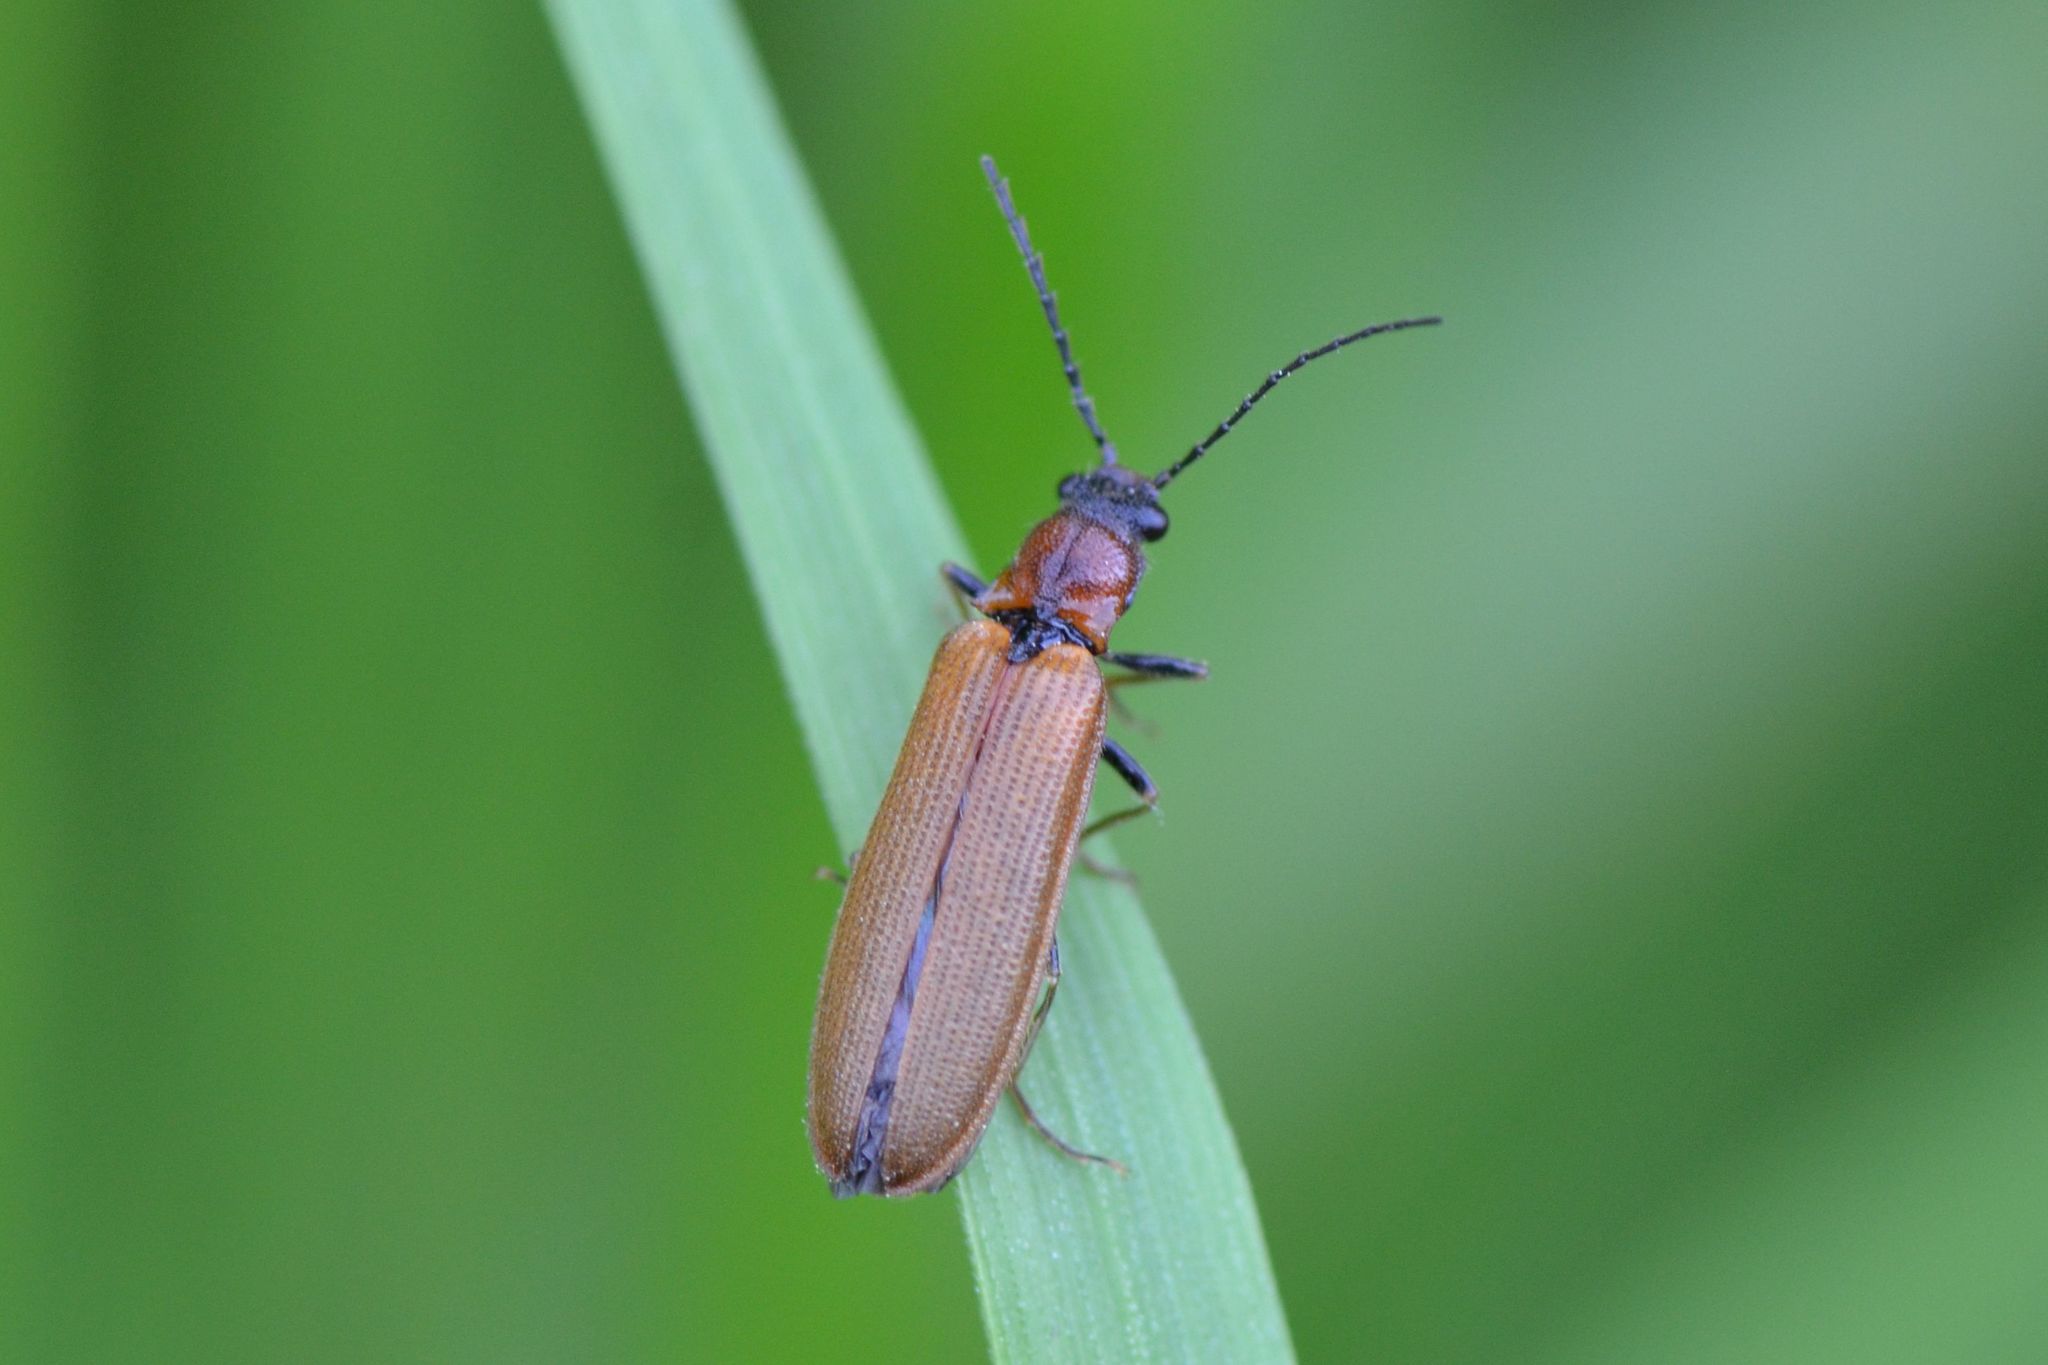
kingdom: Animalia
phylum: Arthropoda
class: Insecta
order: Coleoptera
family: Elateridae
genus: Denticollis
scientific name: Denticollis linearis
